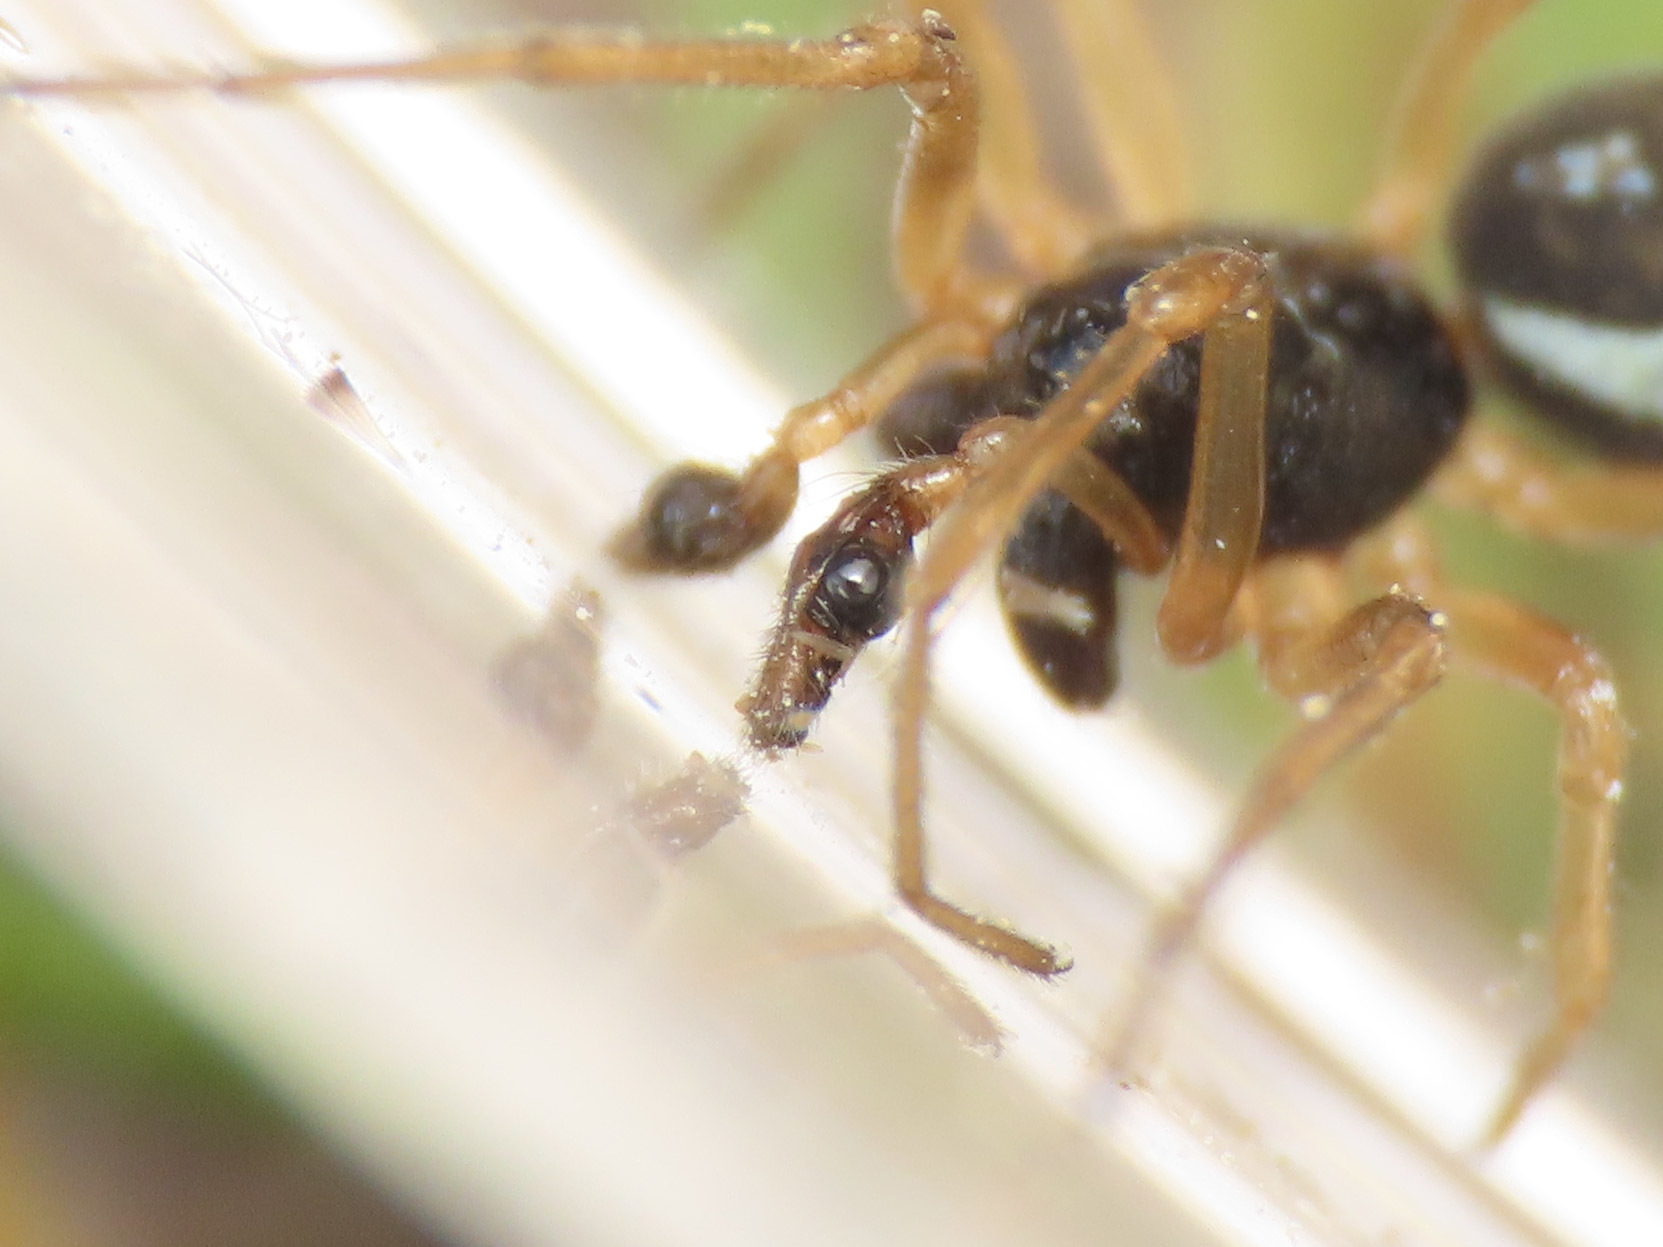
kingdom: Animalia
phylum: Arthropoda
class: Arachnida
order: Araneae
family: Tetragnathidae
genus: Pachygnatha
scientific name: Pachygnatha degeeri
